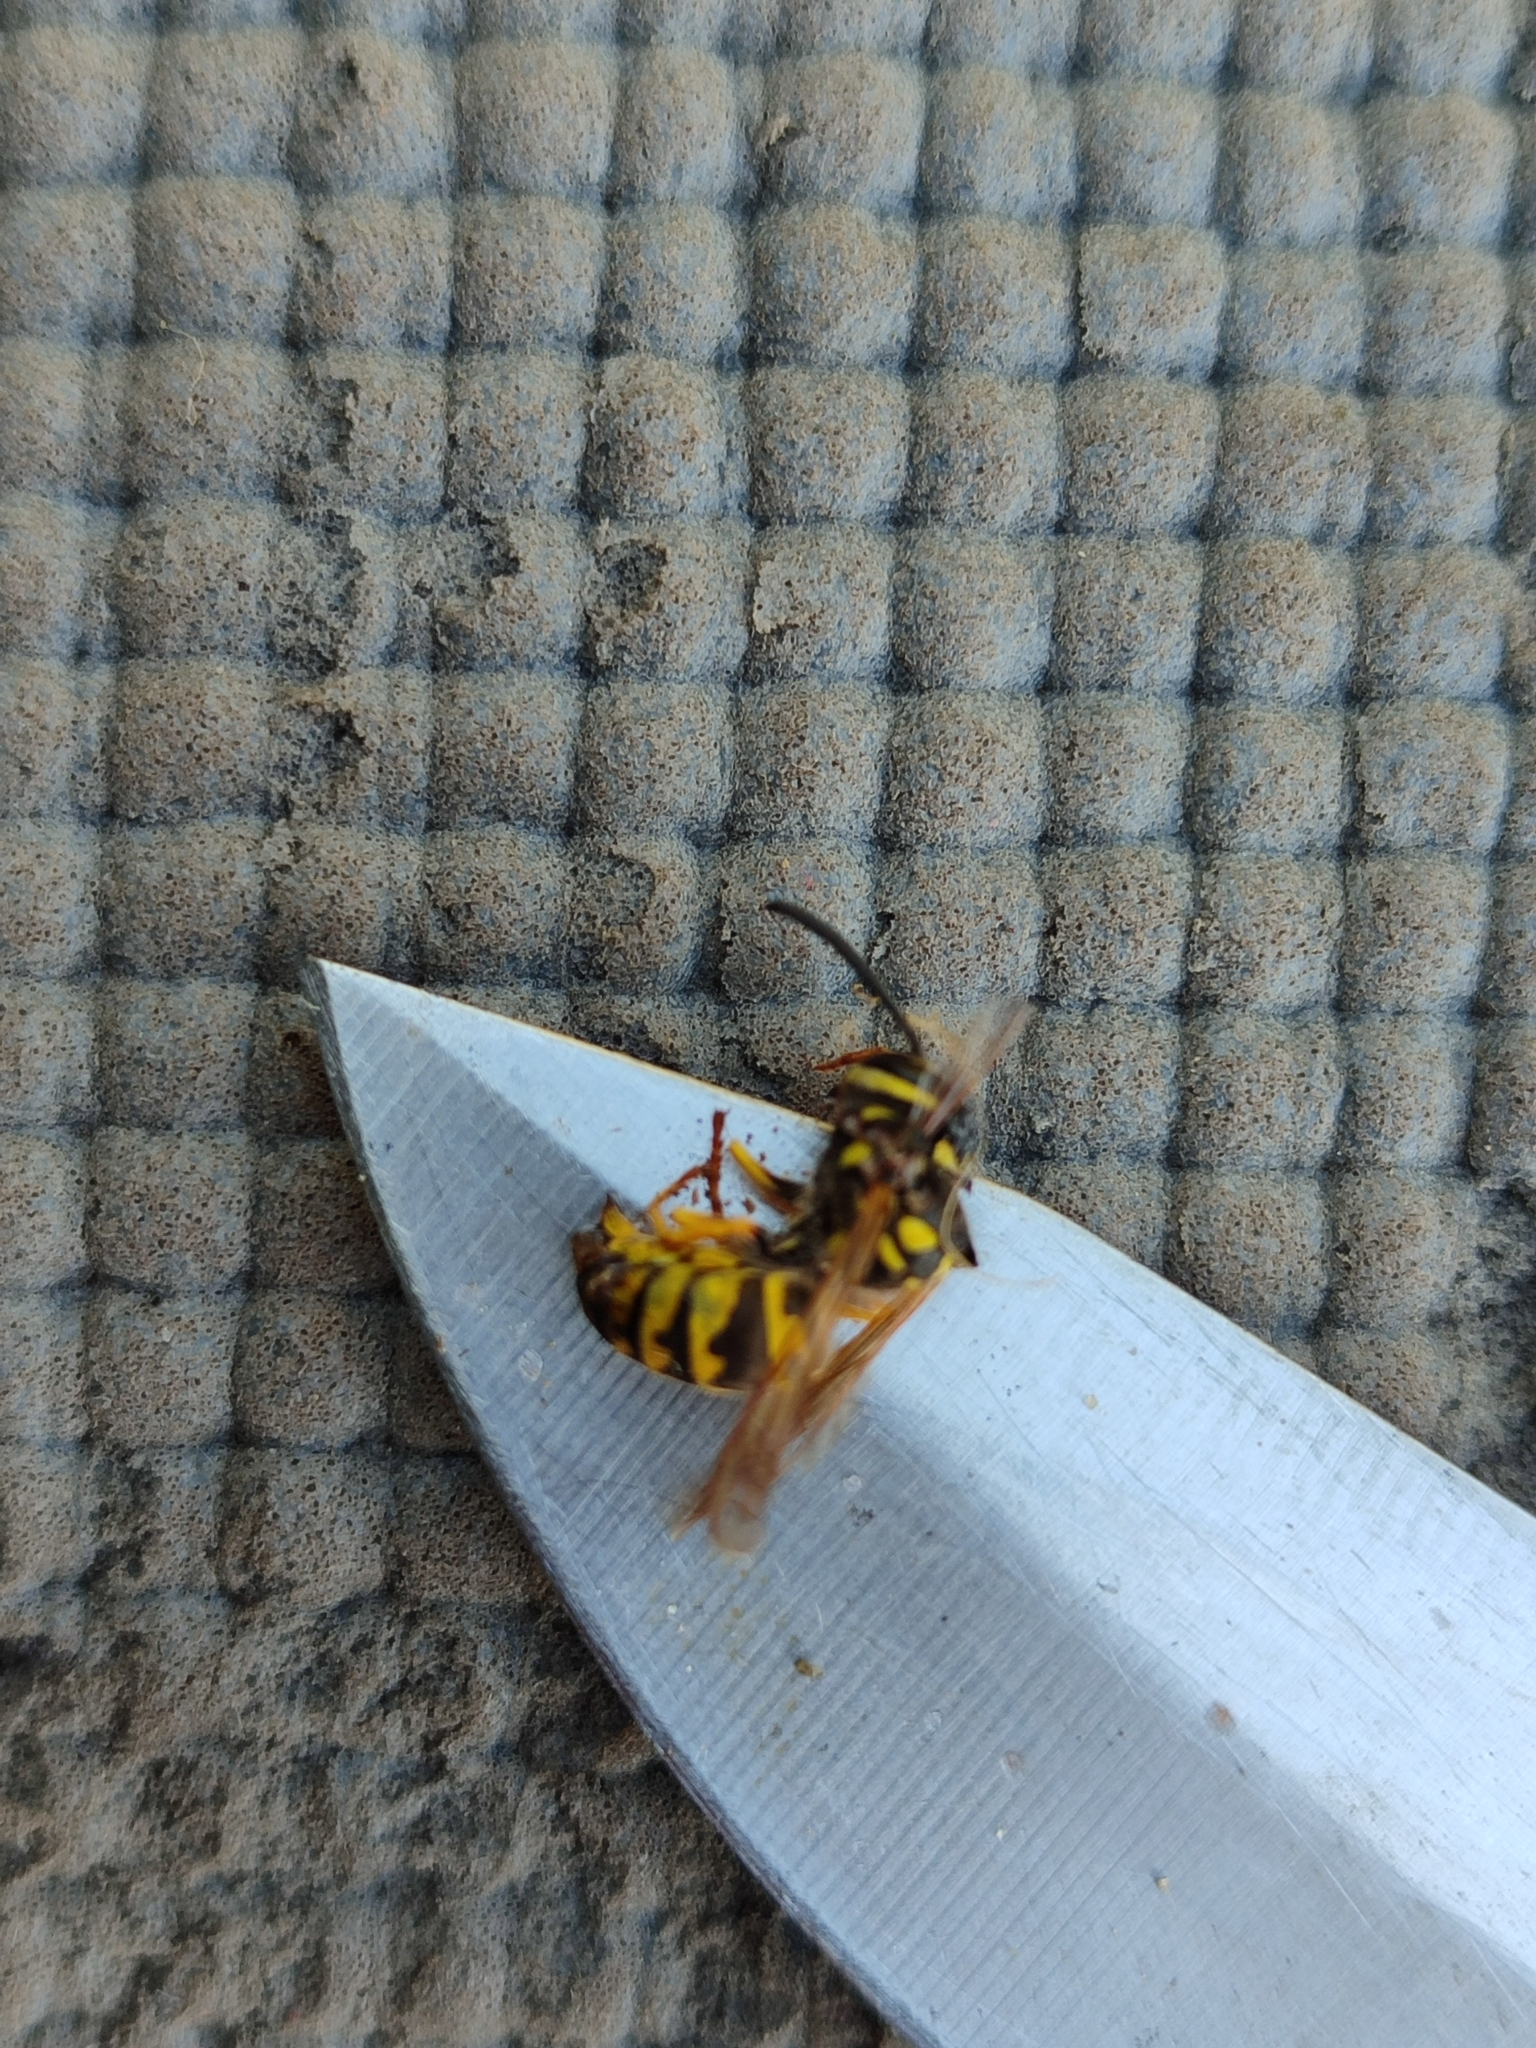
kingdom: Animalia
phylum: Arthropoda
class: Insecta
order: Hymenoptera
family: Vespidae
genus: Vespula
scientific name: Vespula vulgaris
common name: Common wasp
